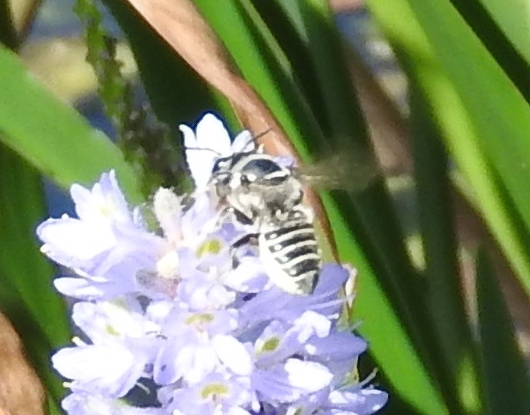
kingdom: Animalia
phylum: Arthropoda
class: Insecta
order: Hymenoptera
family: Megachilidae
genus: Megachile
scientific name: Megachile
